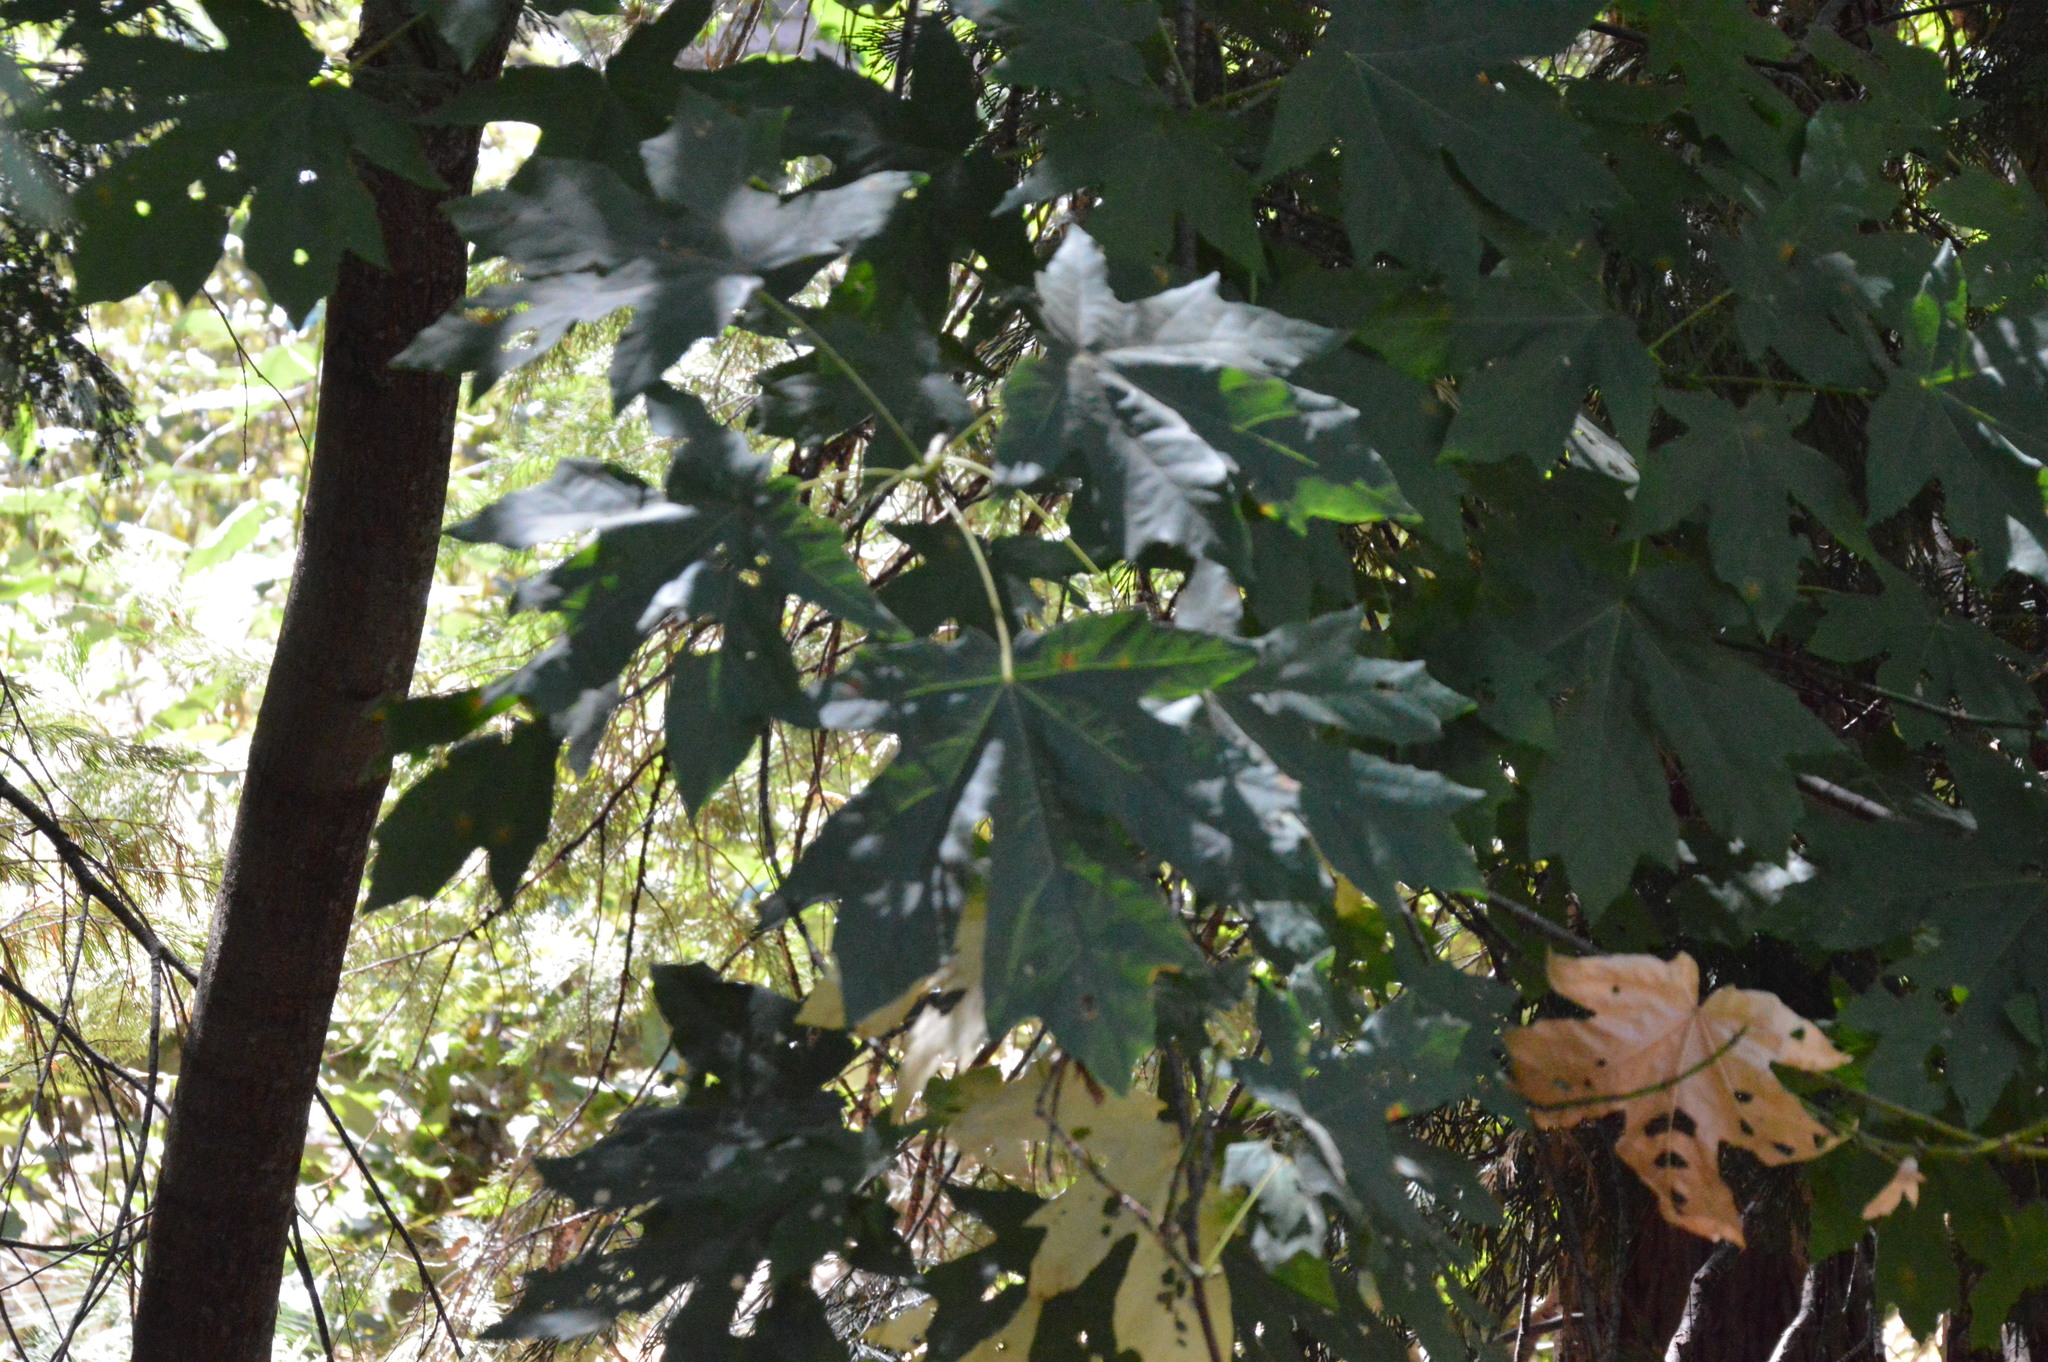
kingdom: Plantae
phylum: Tracheophyta
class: Magnoliopsida
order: Sapindales
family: Sapindaceae
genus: Acer
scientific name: Acer macrophyllum
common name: Oregon maple
